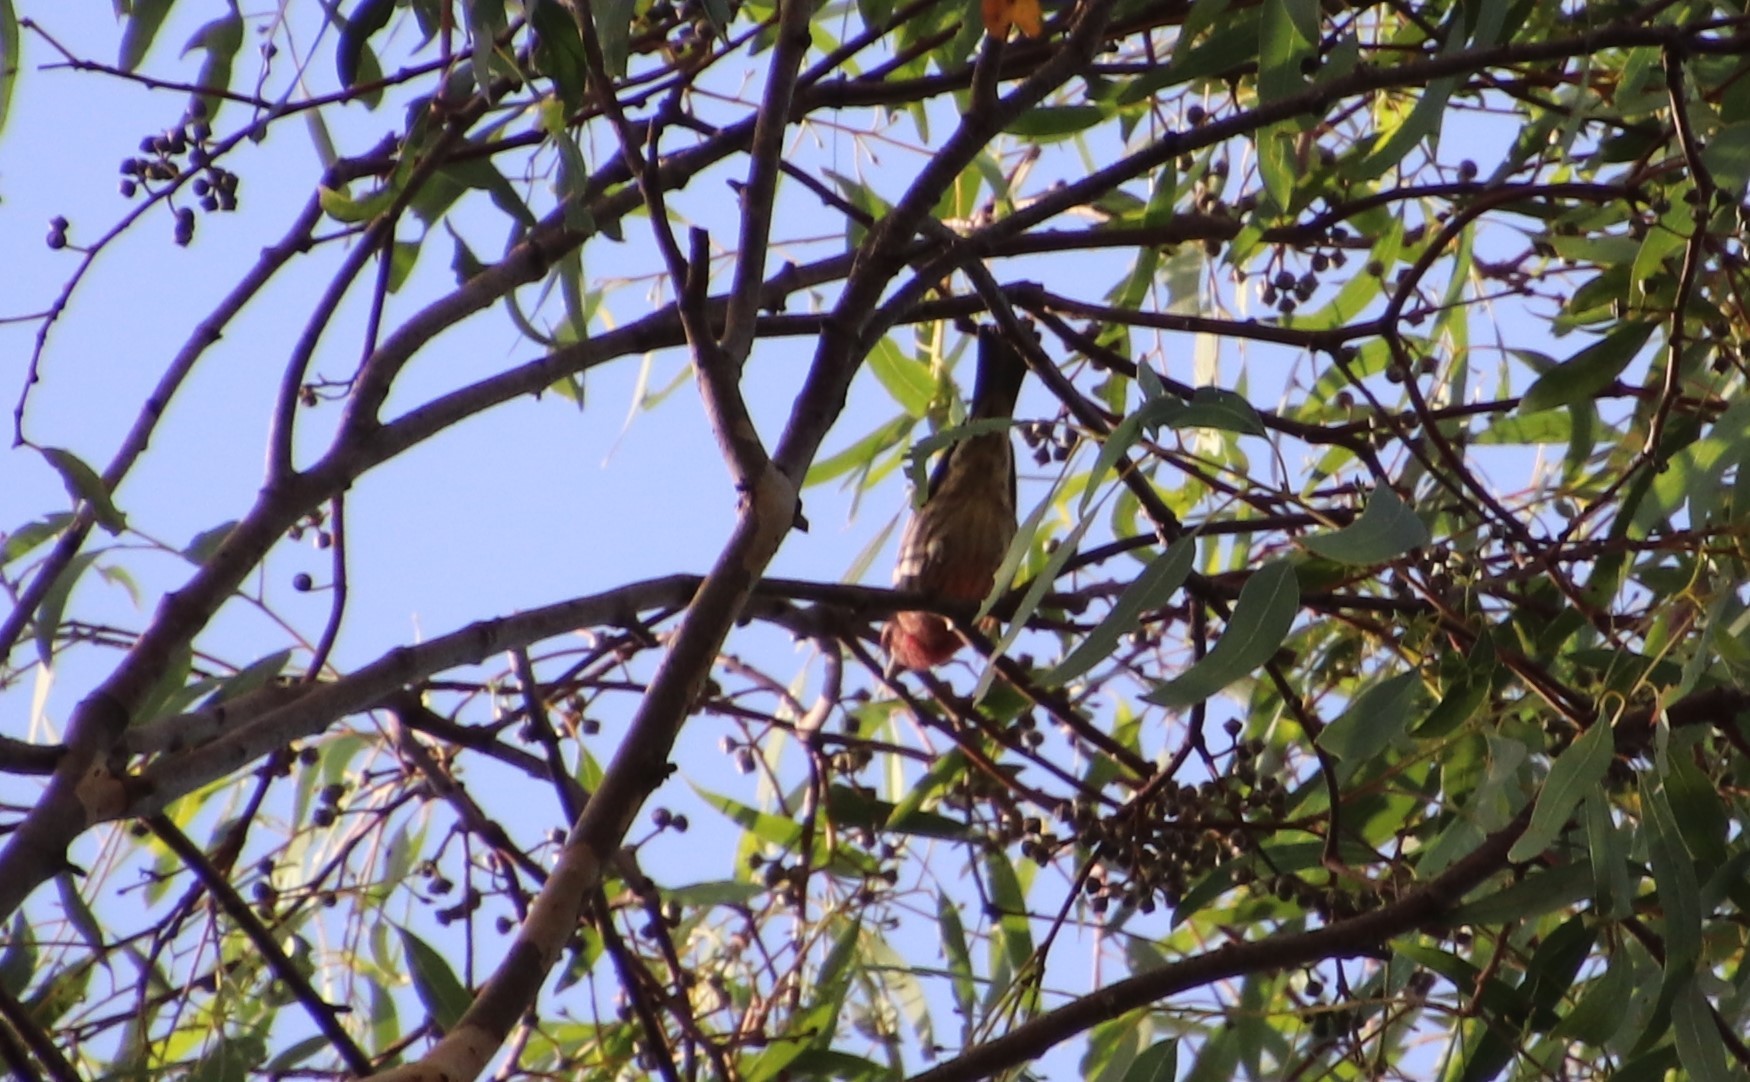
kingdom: Animalia
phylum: Chordata
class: Aves
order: Passeriformes
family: Fringillidae
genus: Haemorhous
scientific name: Haemorhous mexicanus
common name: House finch
